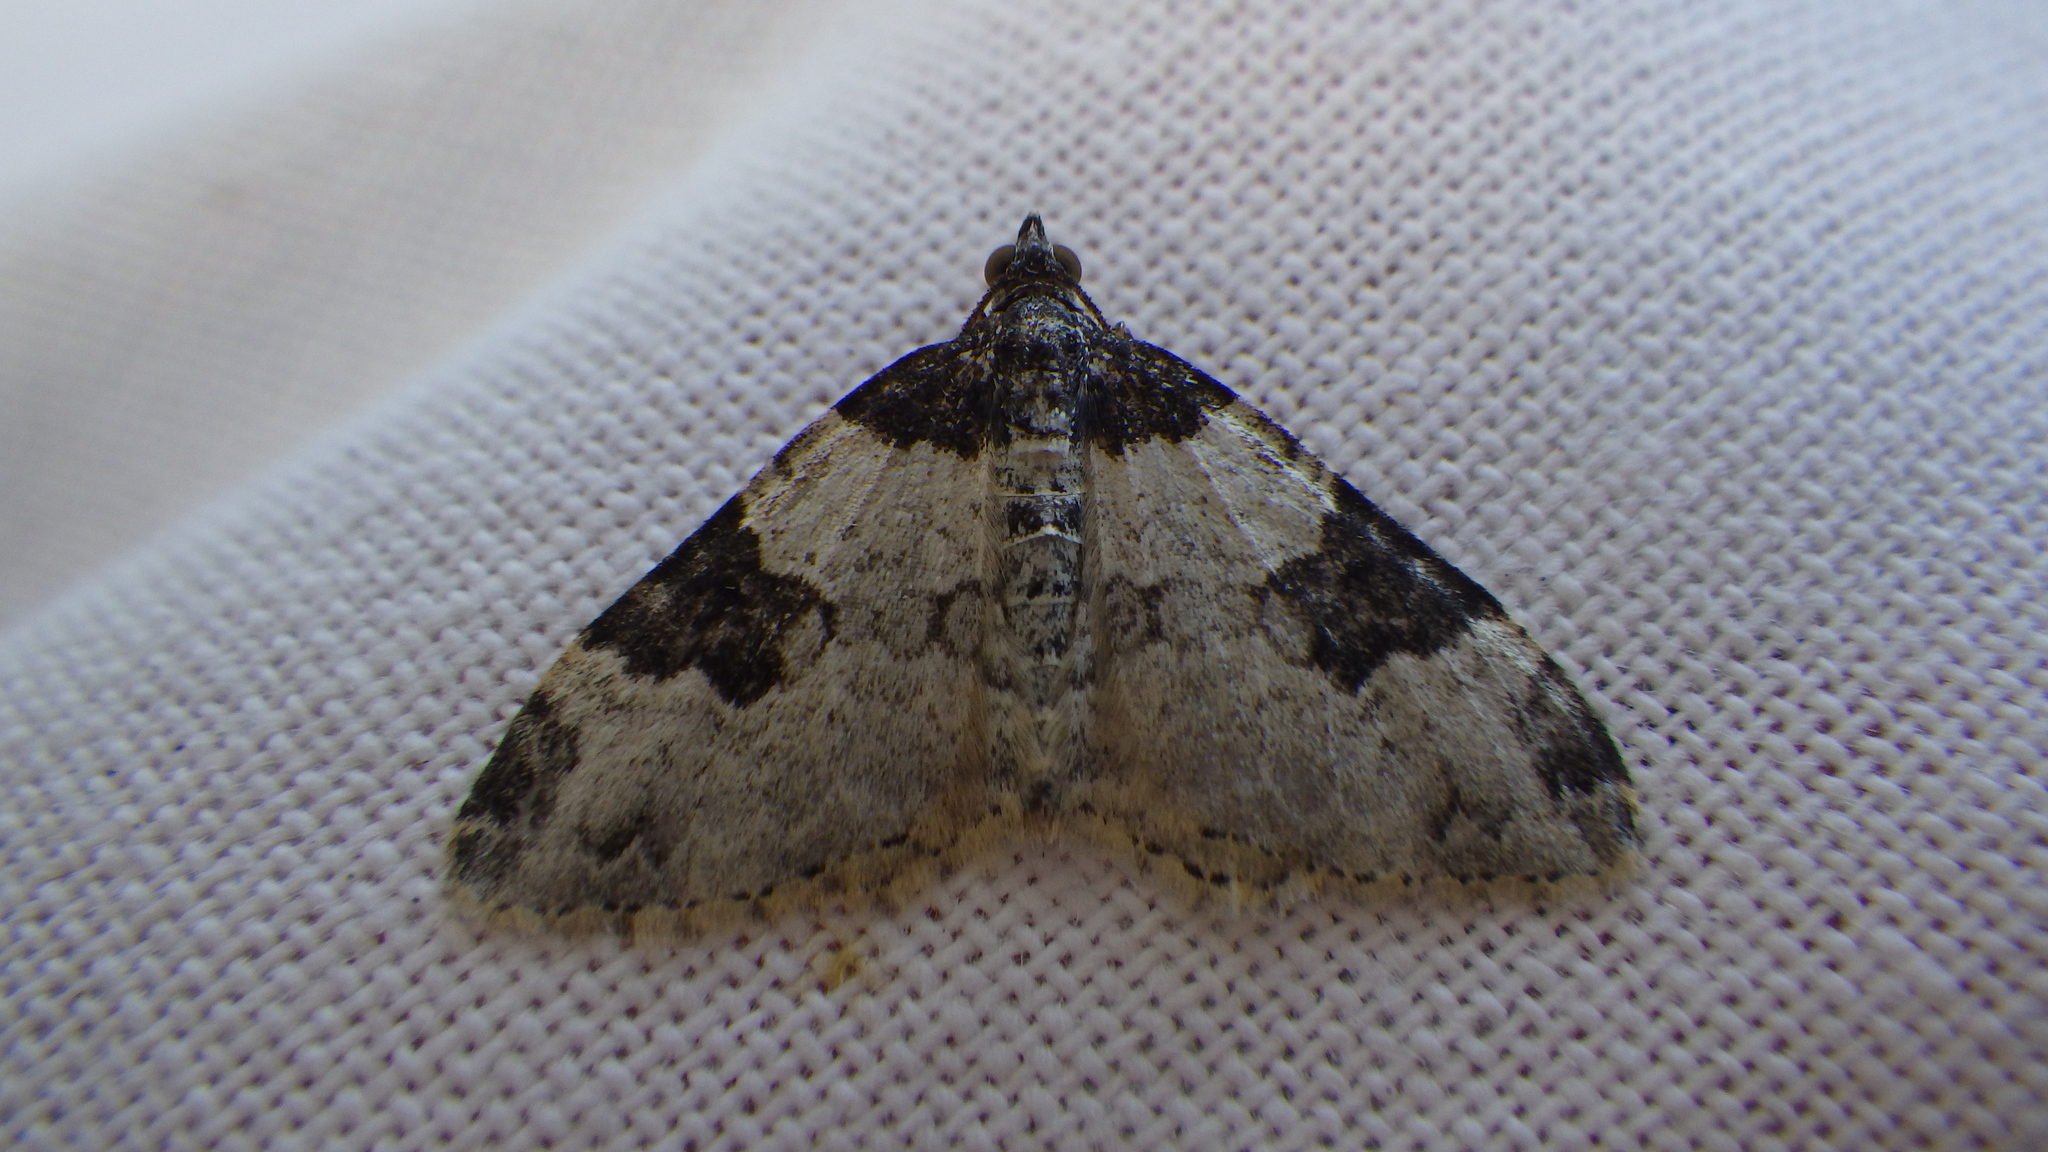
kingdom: Animalia
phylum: Arthropoda
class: Insecta
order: Lepidoptera
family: Geometridae
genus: Xanthorhoe
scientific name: Xanthorhoe fluctuata
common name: Garden carpet
